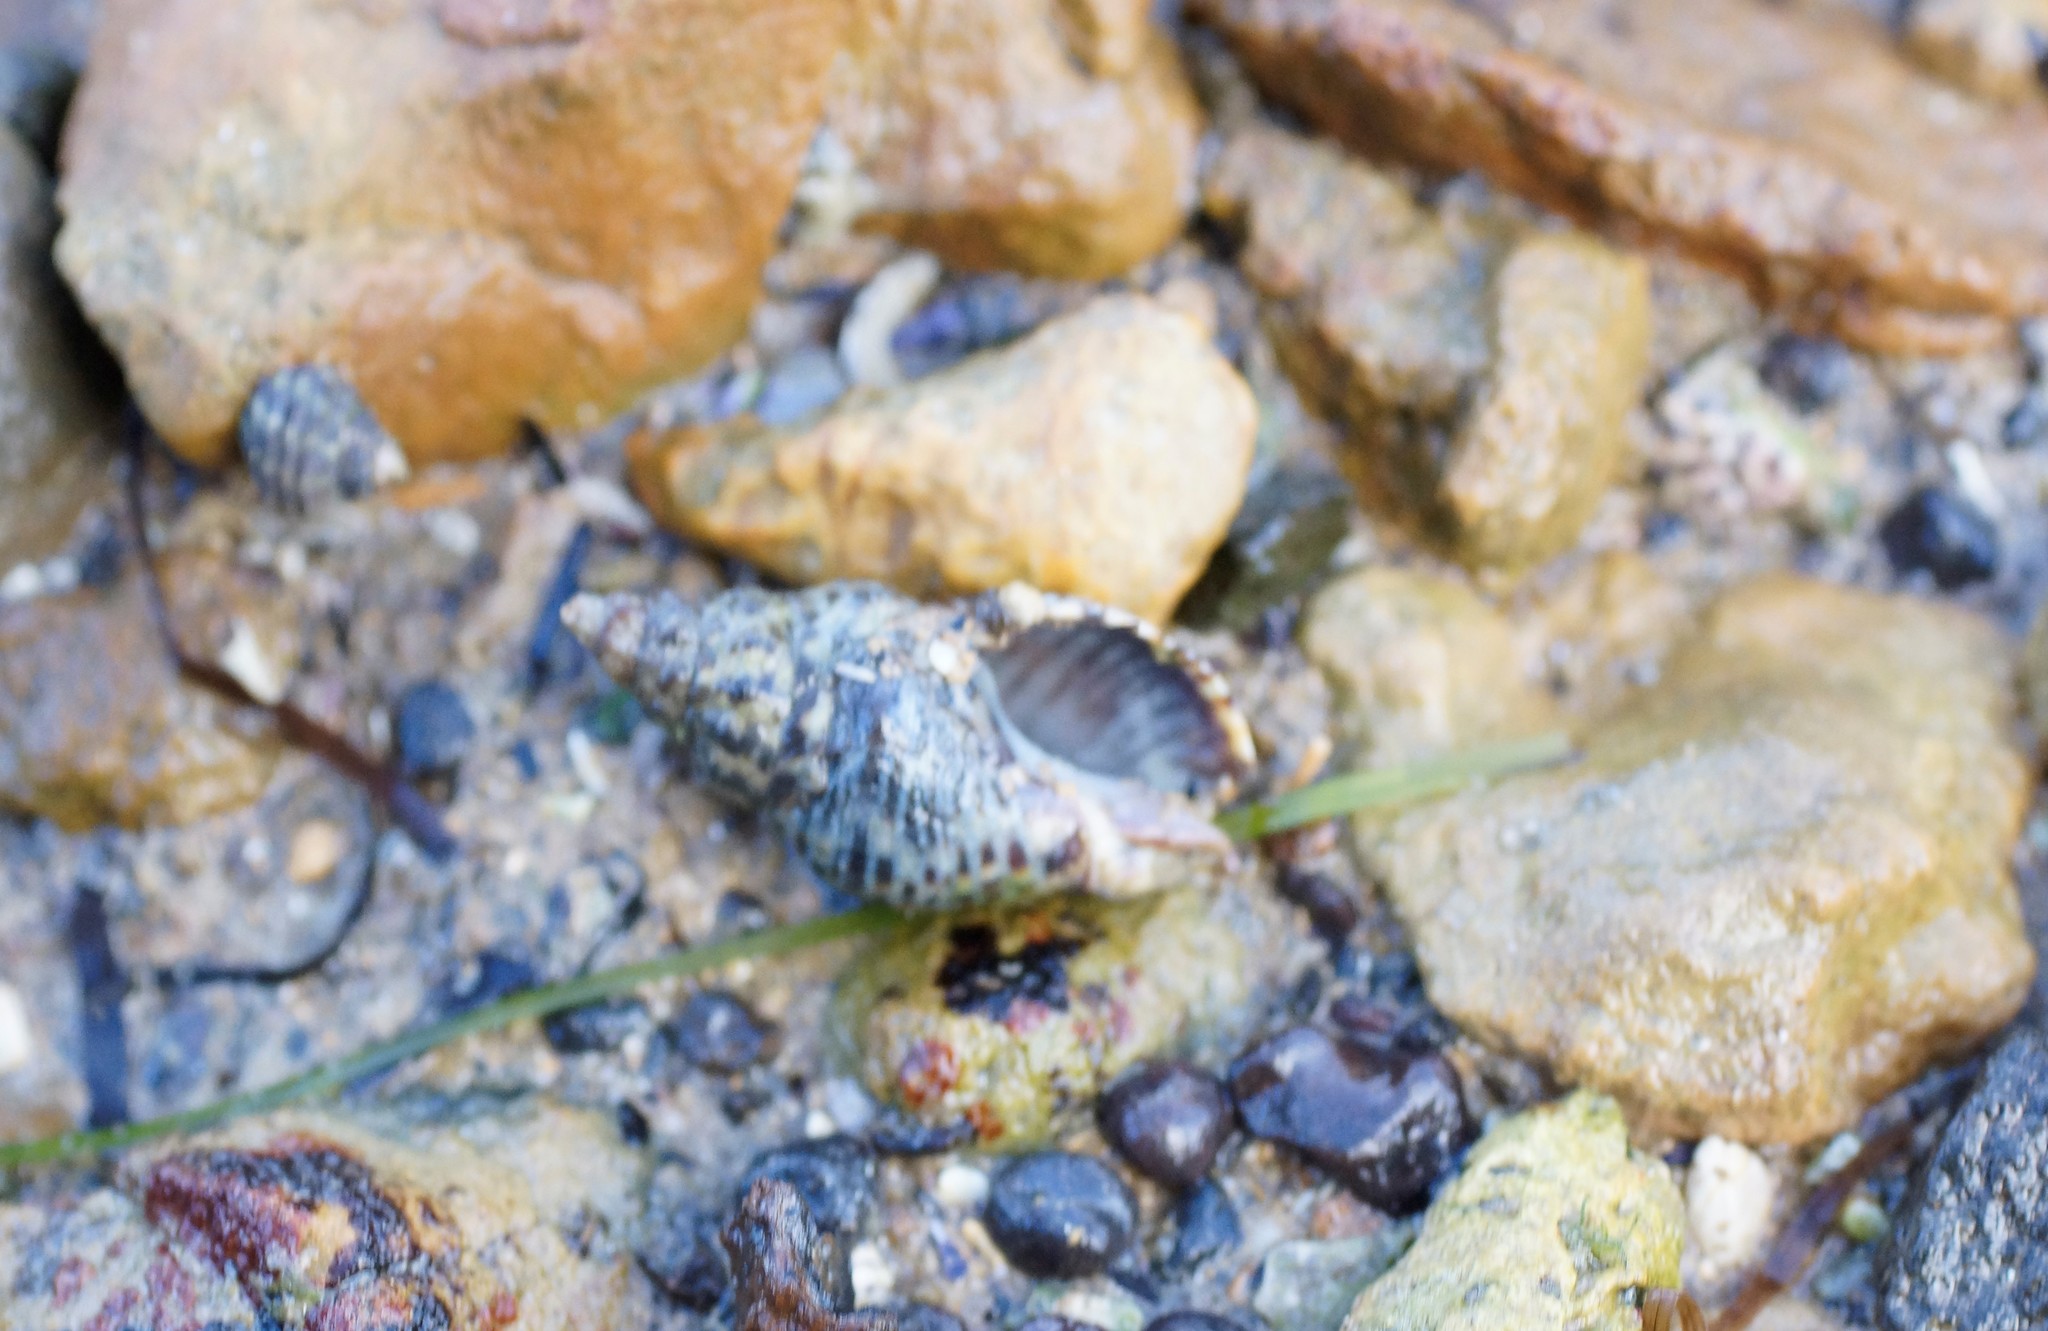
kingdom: Animalia
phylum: Mollusca
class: Gastropoda
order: Neogastropoda
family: Cominellidae
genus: Cominella
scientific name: Cominella lineolata
